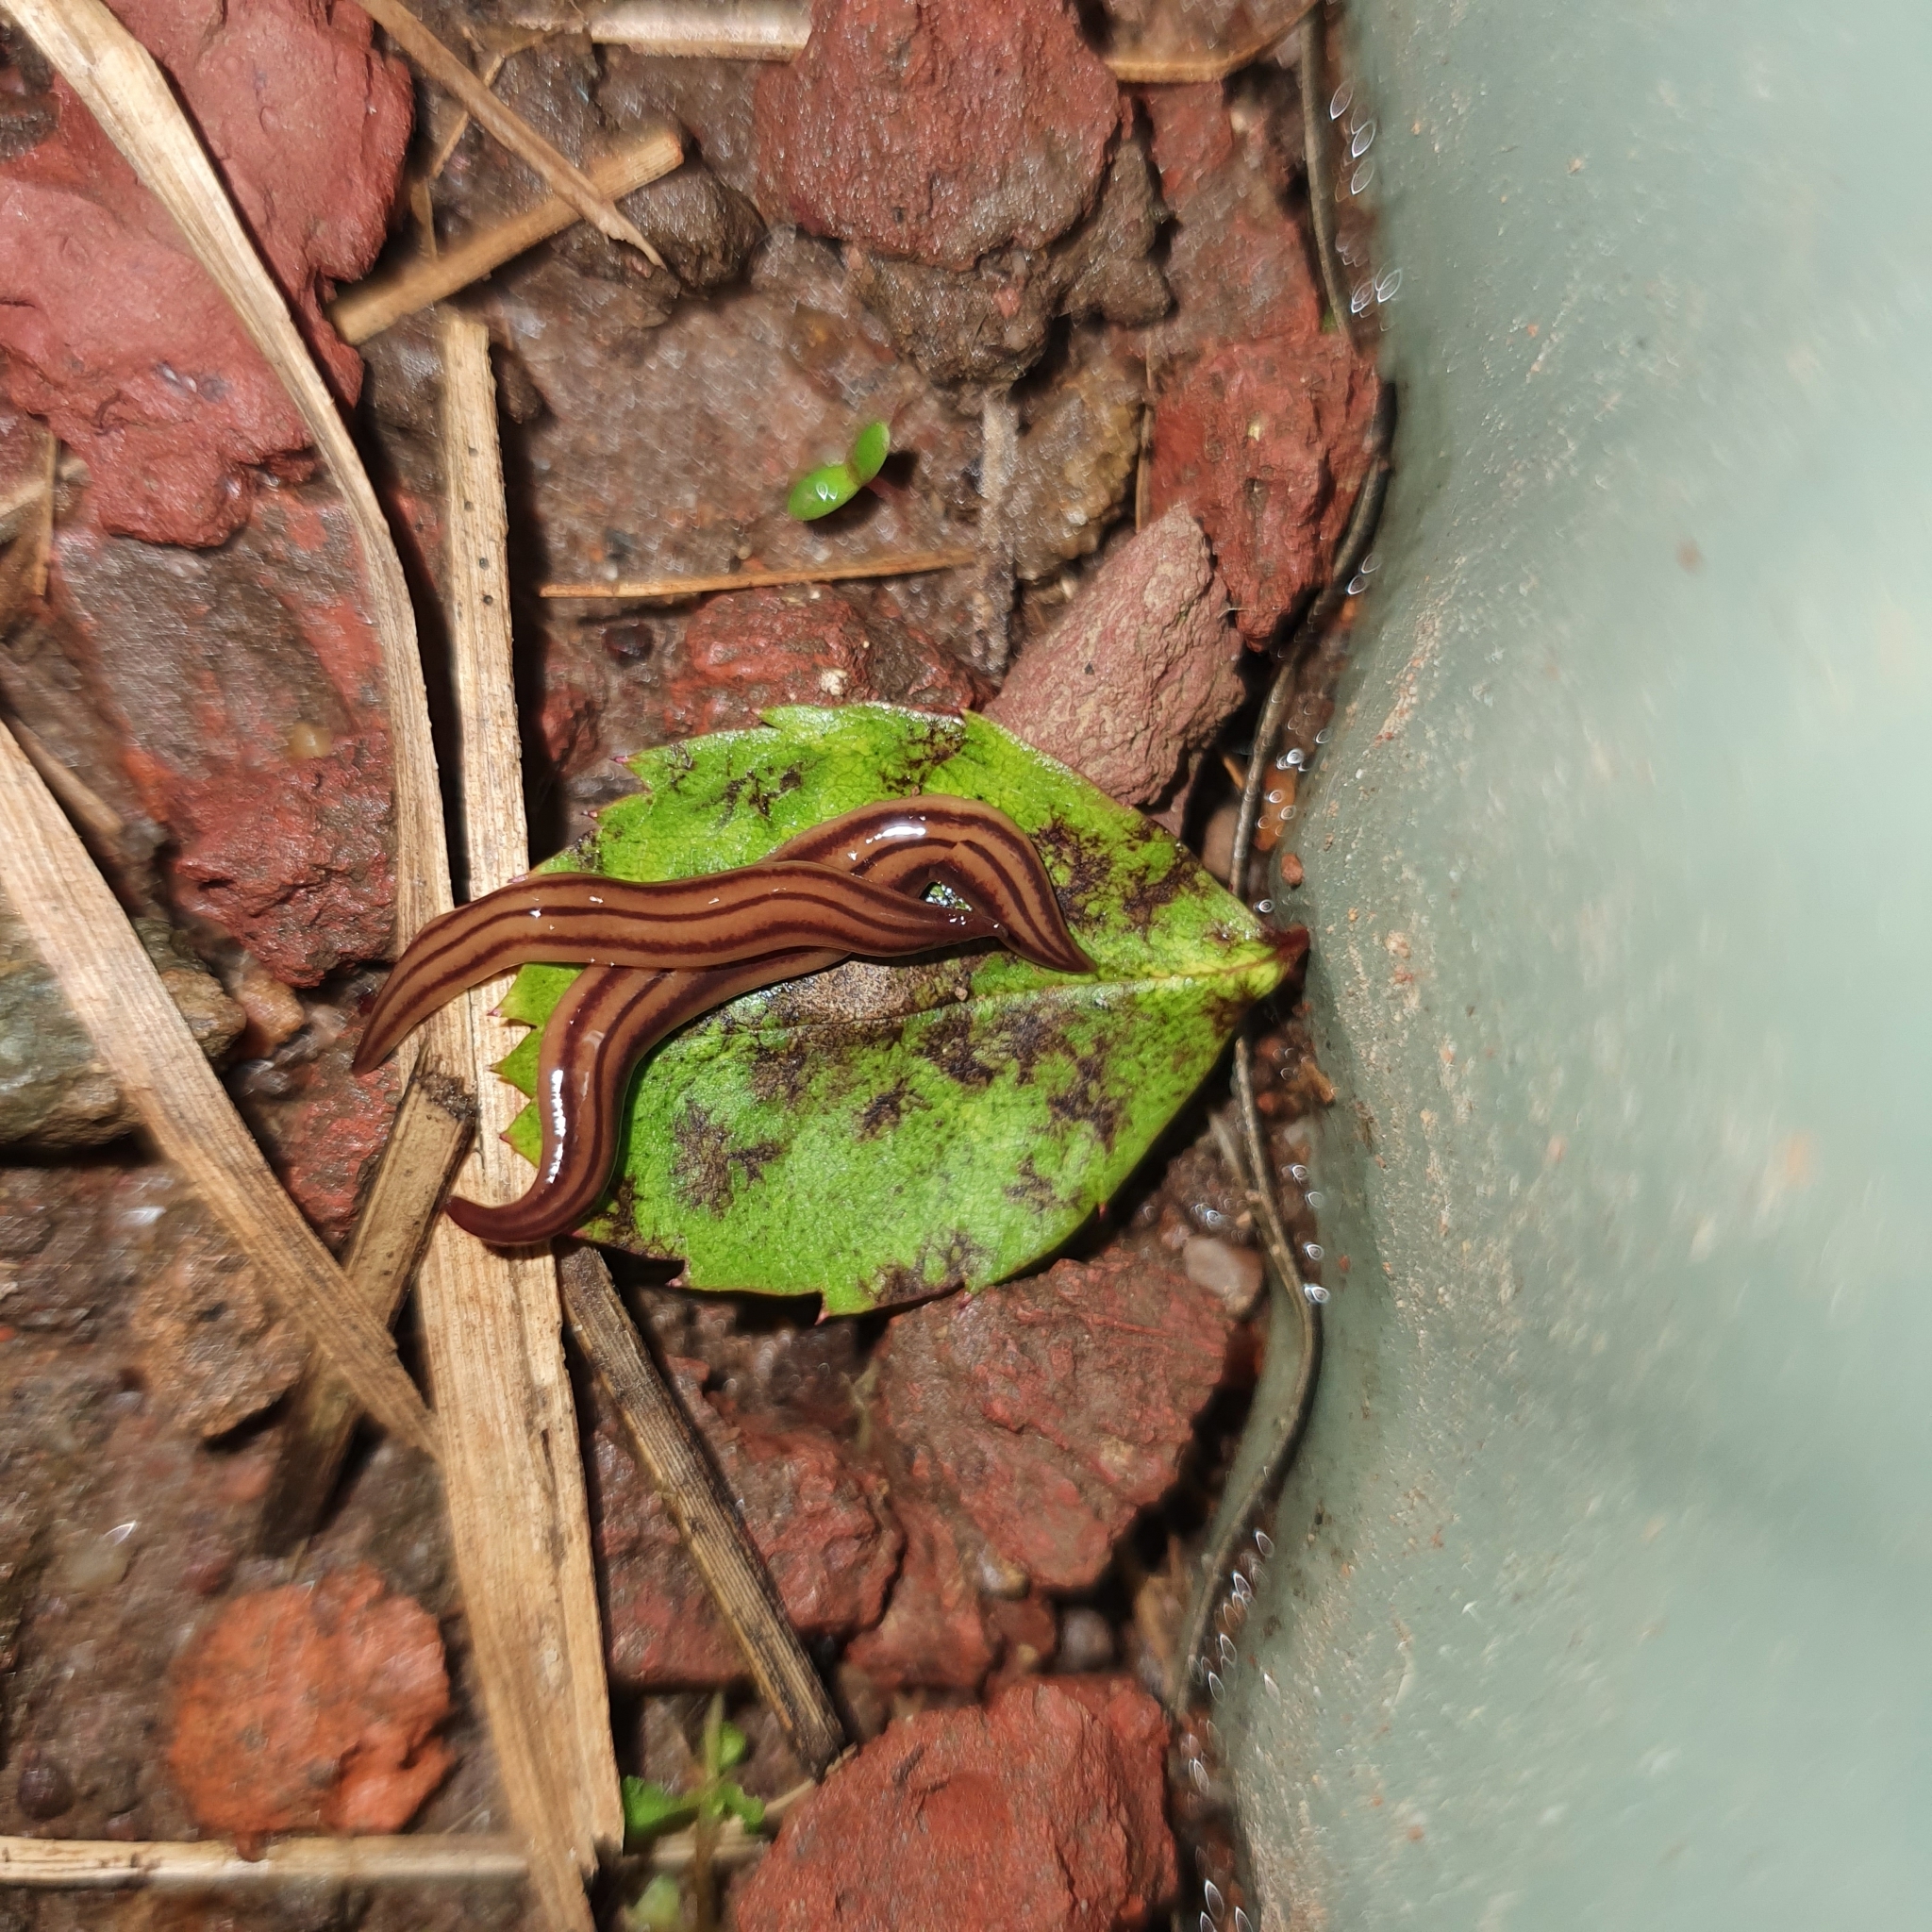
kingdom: Animalia
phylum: Platyhelminthes
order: Tricladida
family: Geoplanidae
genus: Anzoplana
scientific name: Anzoplana trilineata
